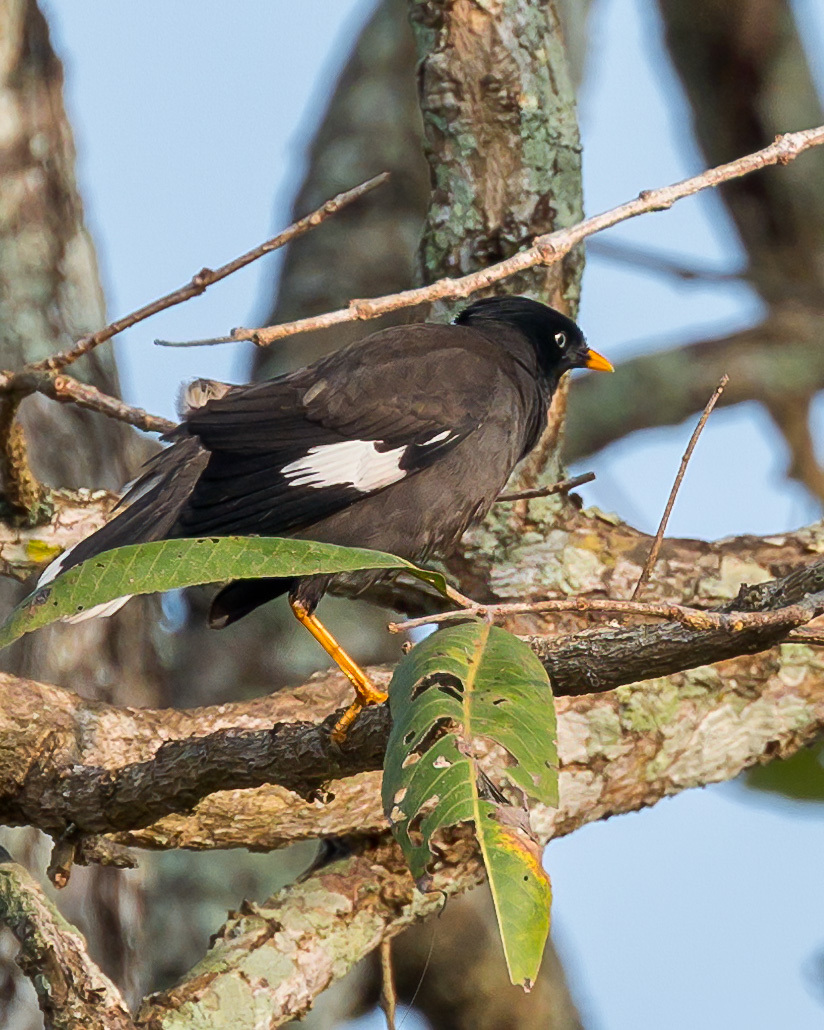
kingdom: Animalia
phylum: Chordata
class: Aves
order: Passeriformes
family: Sturnidae
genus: Acridotheres
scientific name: Acridotheres fuscus
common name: Jungle myna
